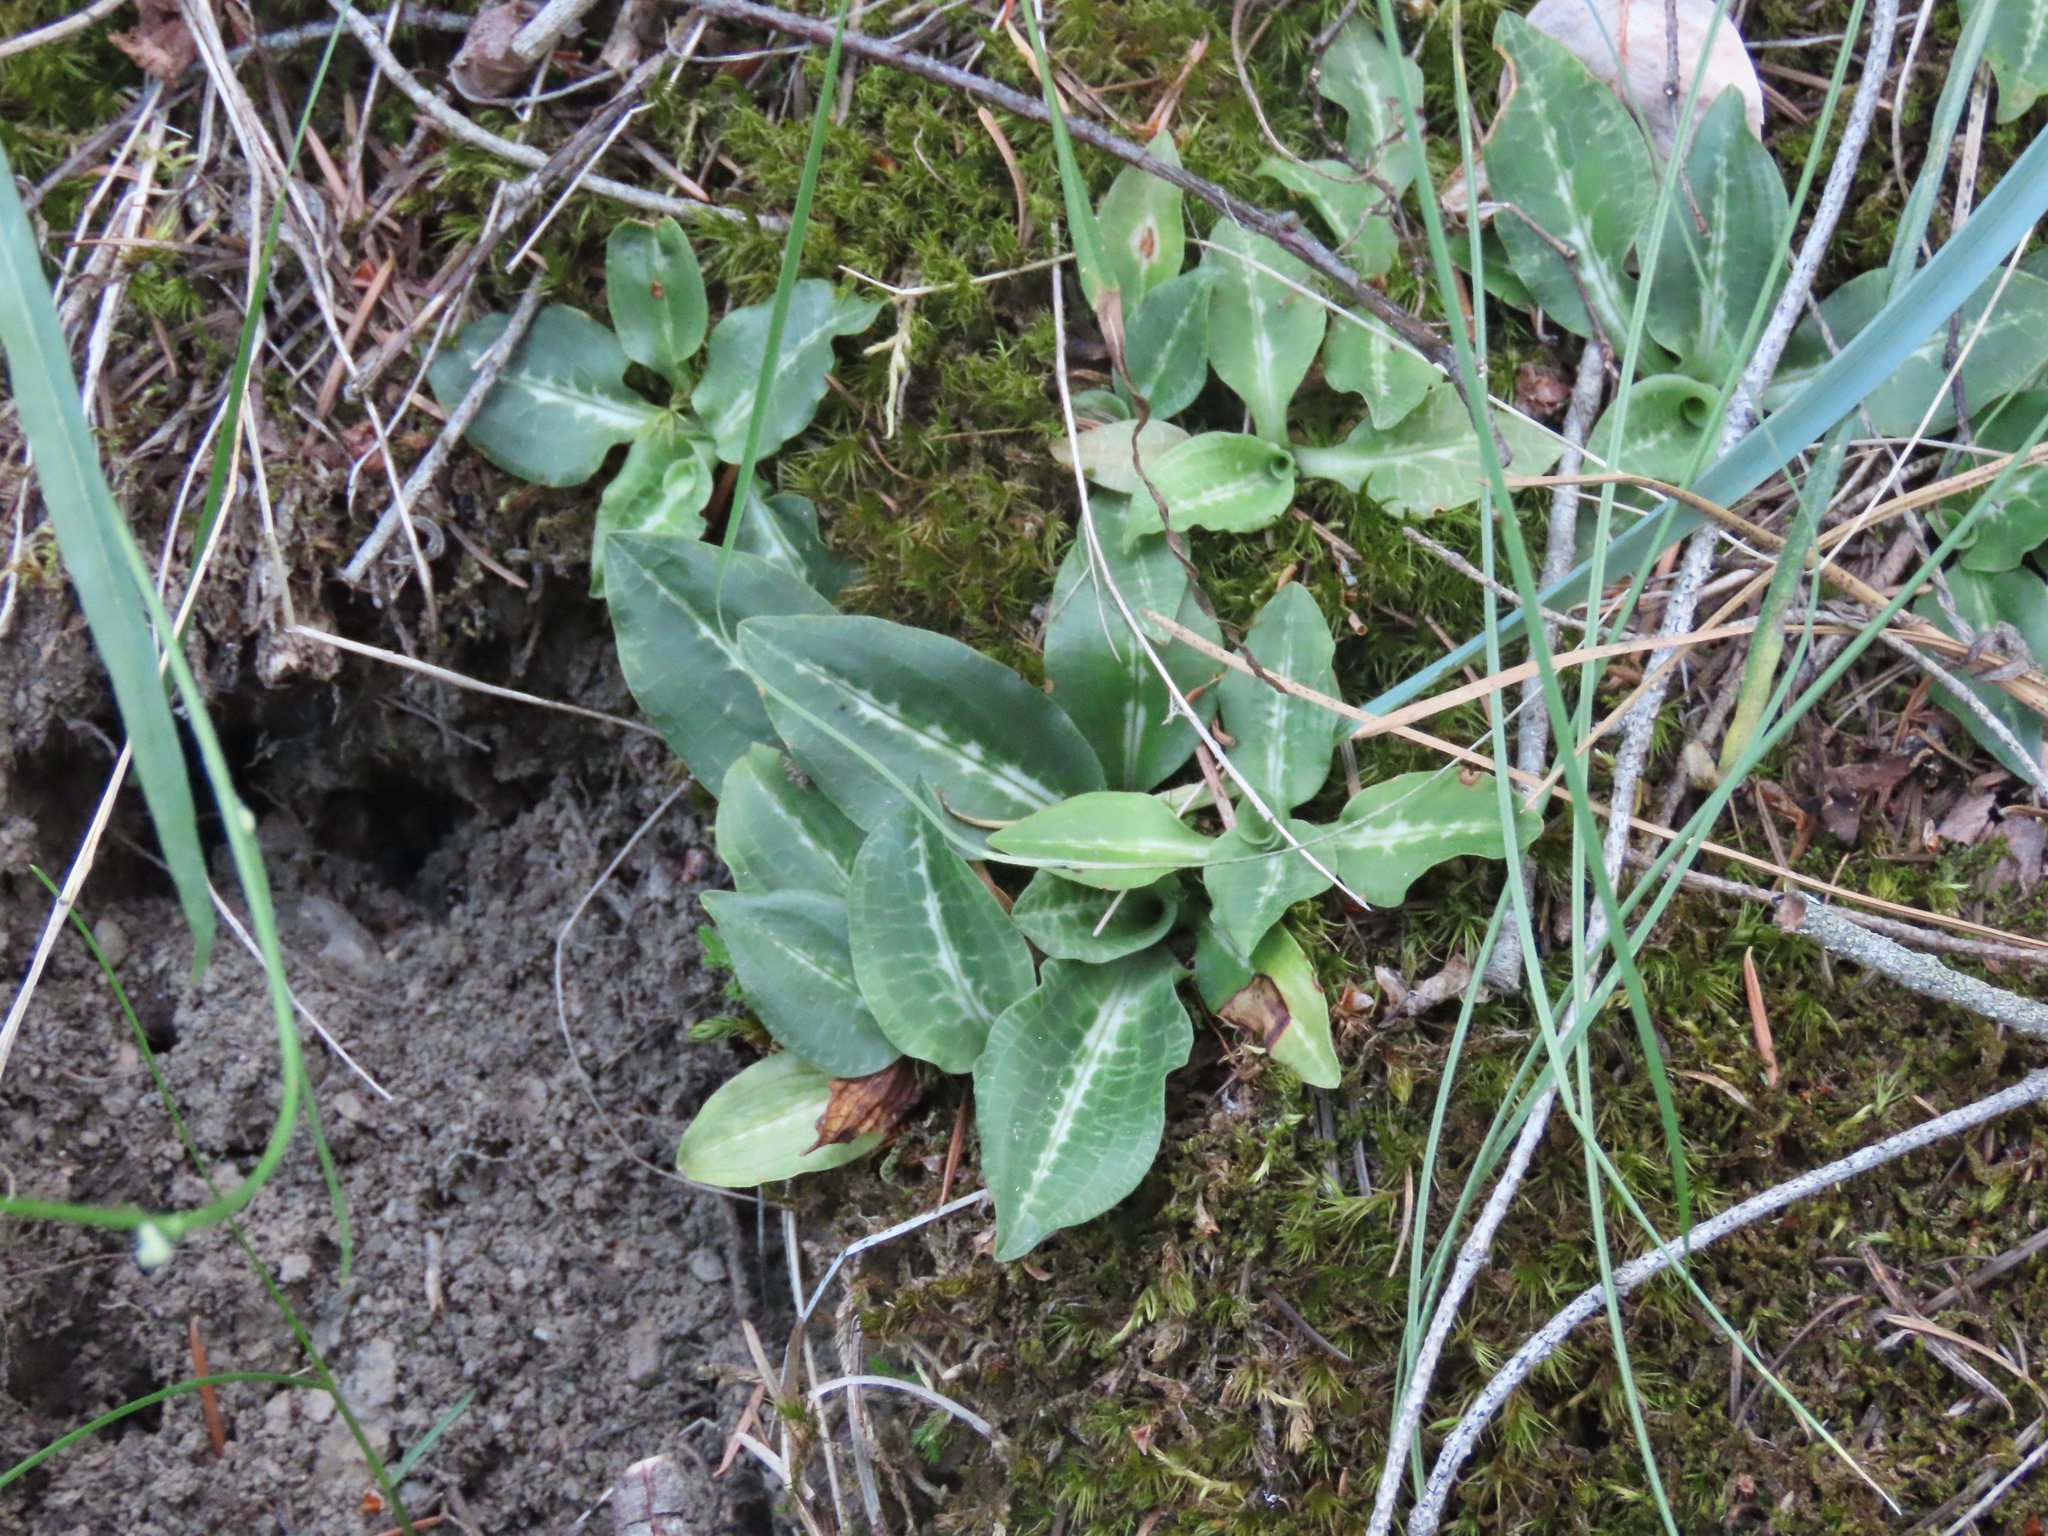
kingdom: Plantae
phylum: Tracheophyta
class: Liliopsida
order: Asparagales
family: Orchidaceae
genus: Goodyera
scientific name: Goodyera oblongifolia
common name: Giant rattlesnake-plantain
